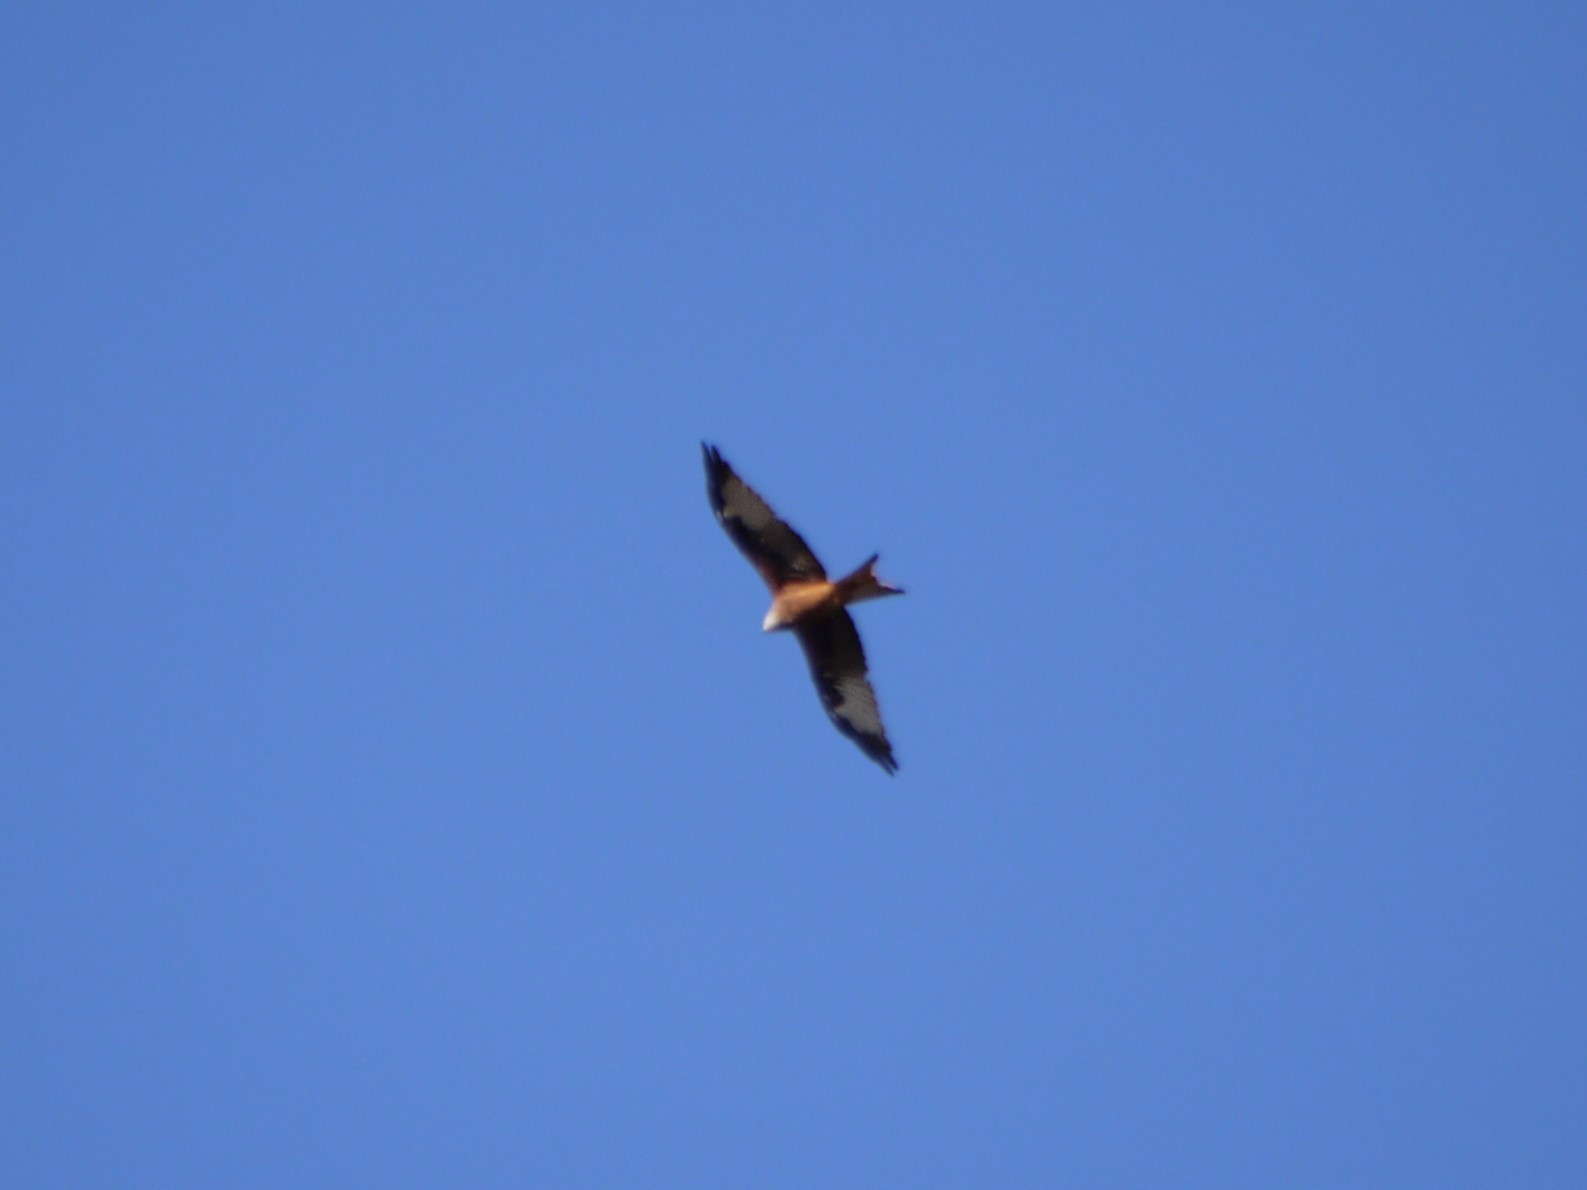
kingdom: Animalia
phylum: Chordata
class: Aves
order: Accipitriformes
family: Accipitridae
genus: Milvus
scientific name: Milvus milvus
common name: Red kite
